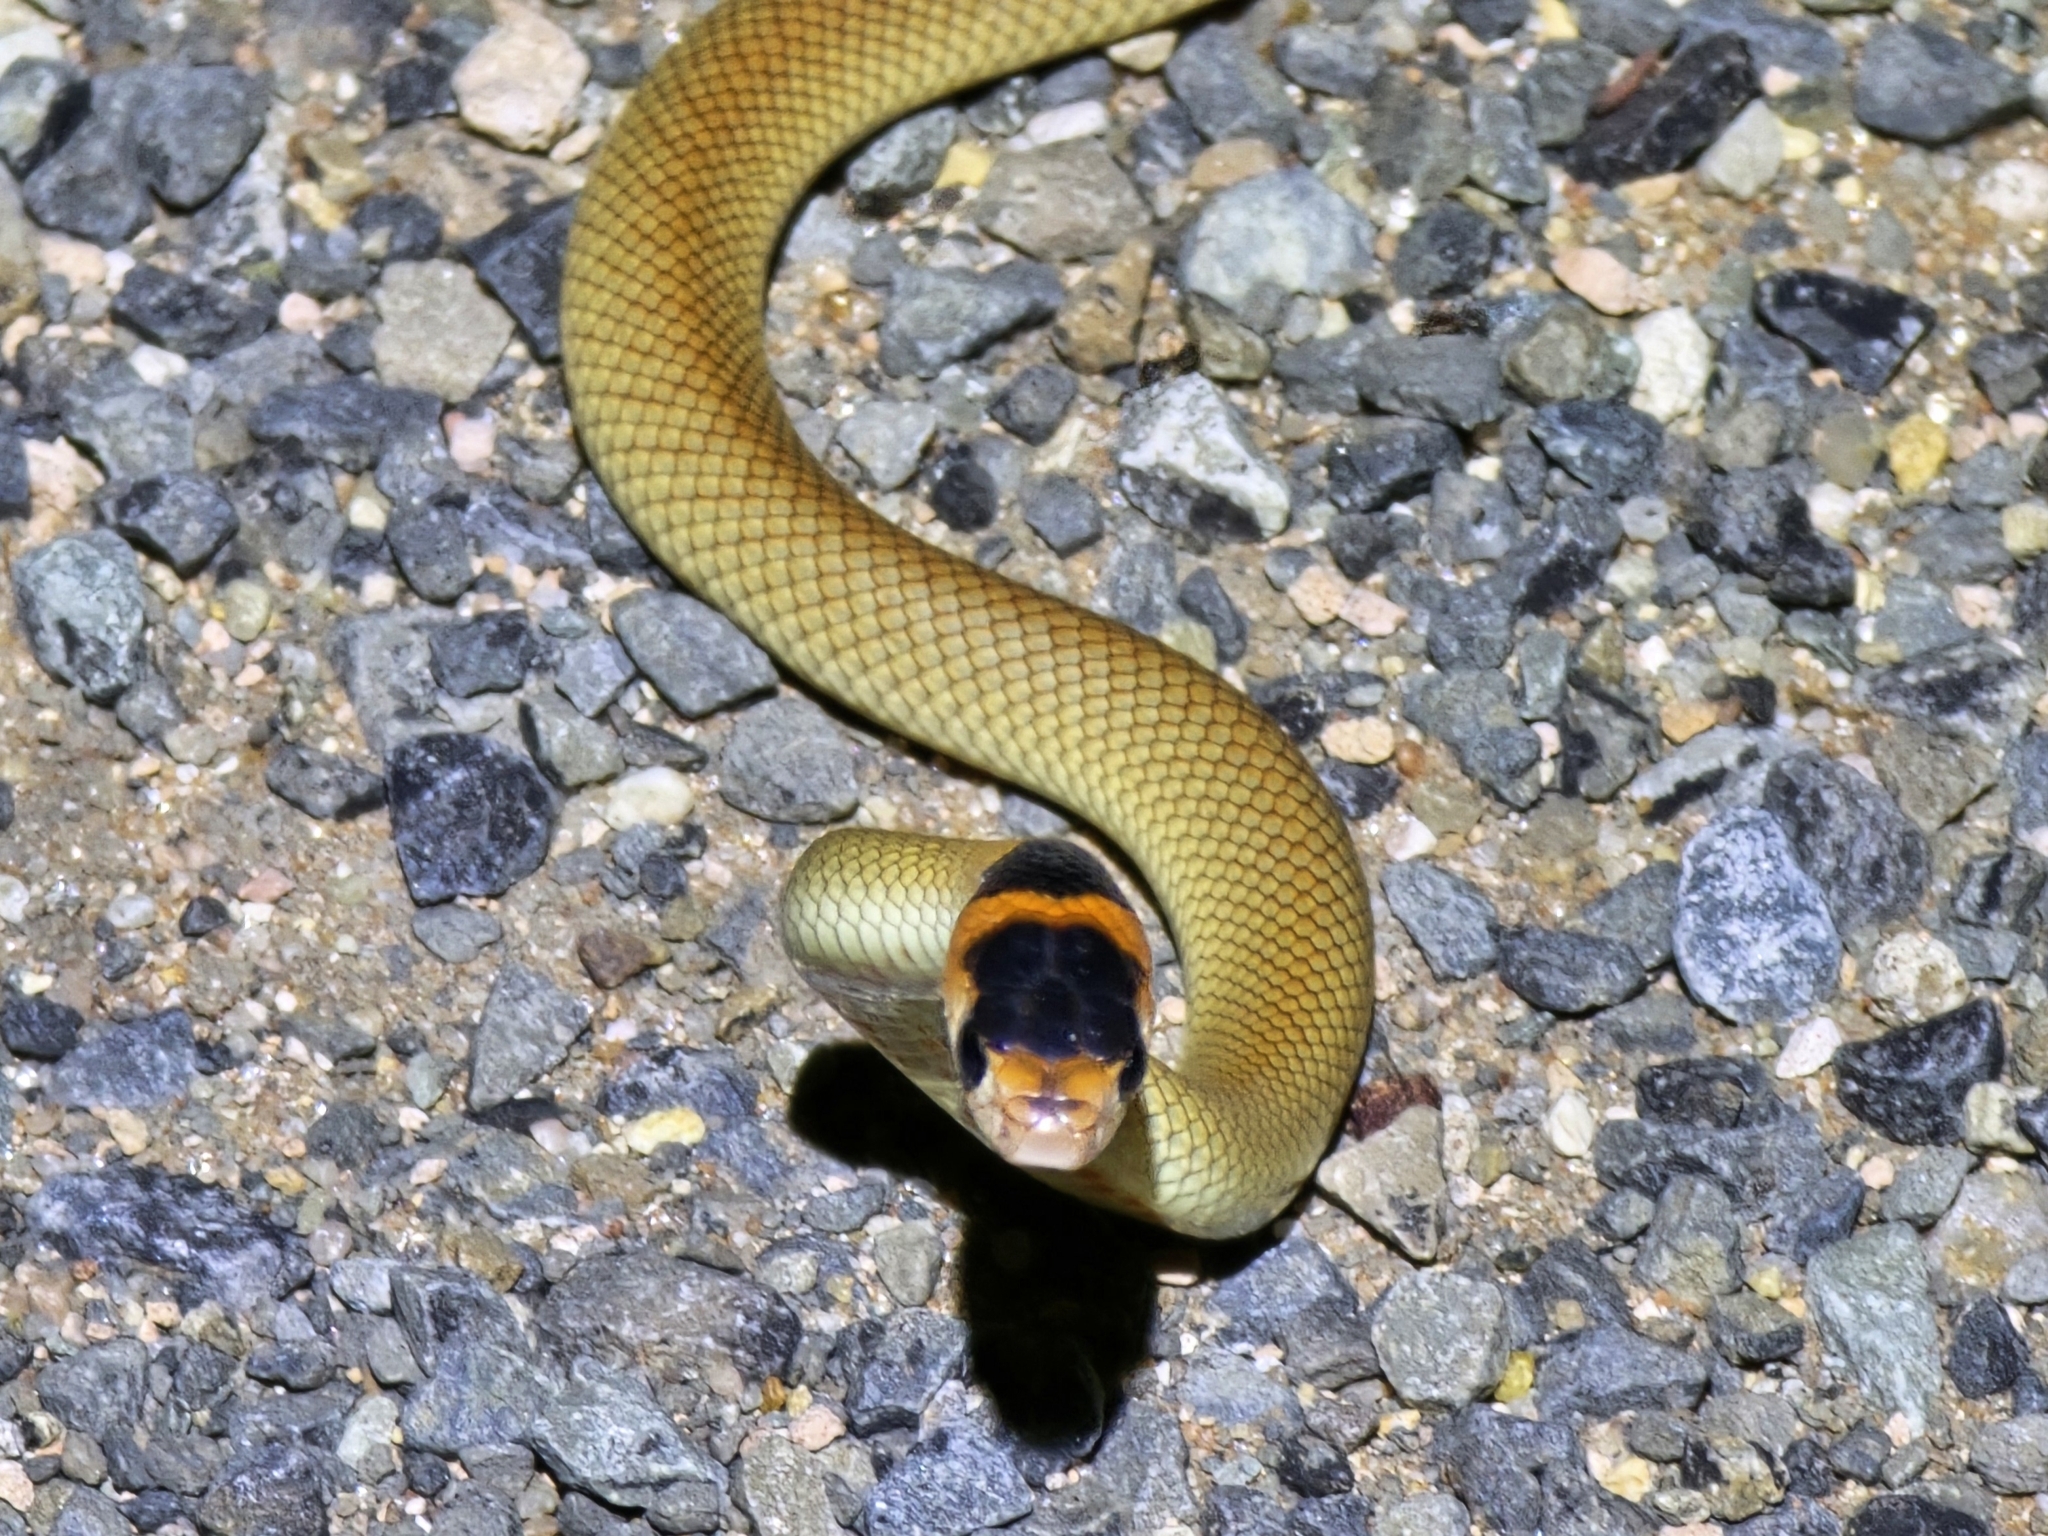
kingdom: Animalia
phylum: Chordata
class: Squamata
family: Elapidae
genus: Pseudonaja
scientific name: Pseudonaja textilis
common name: Eastern brown snake
